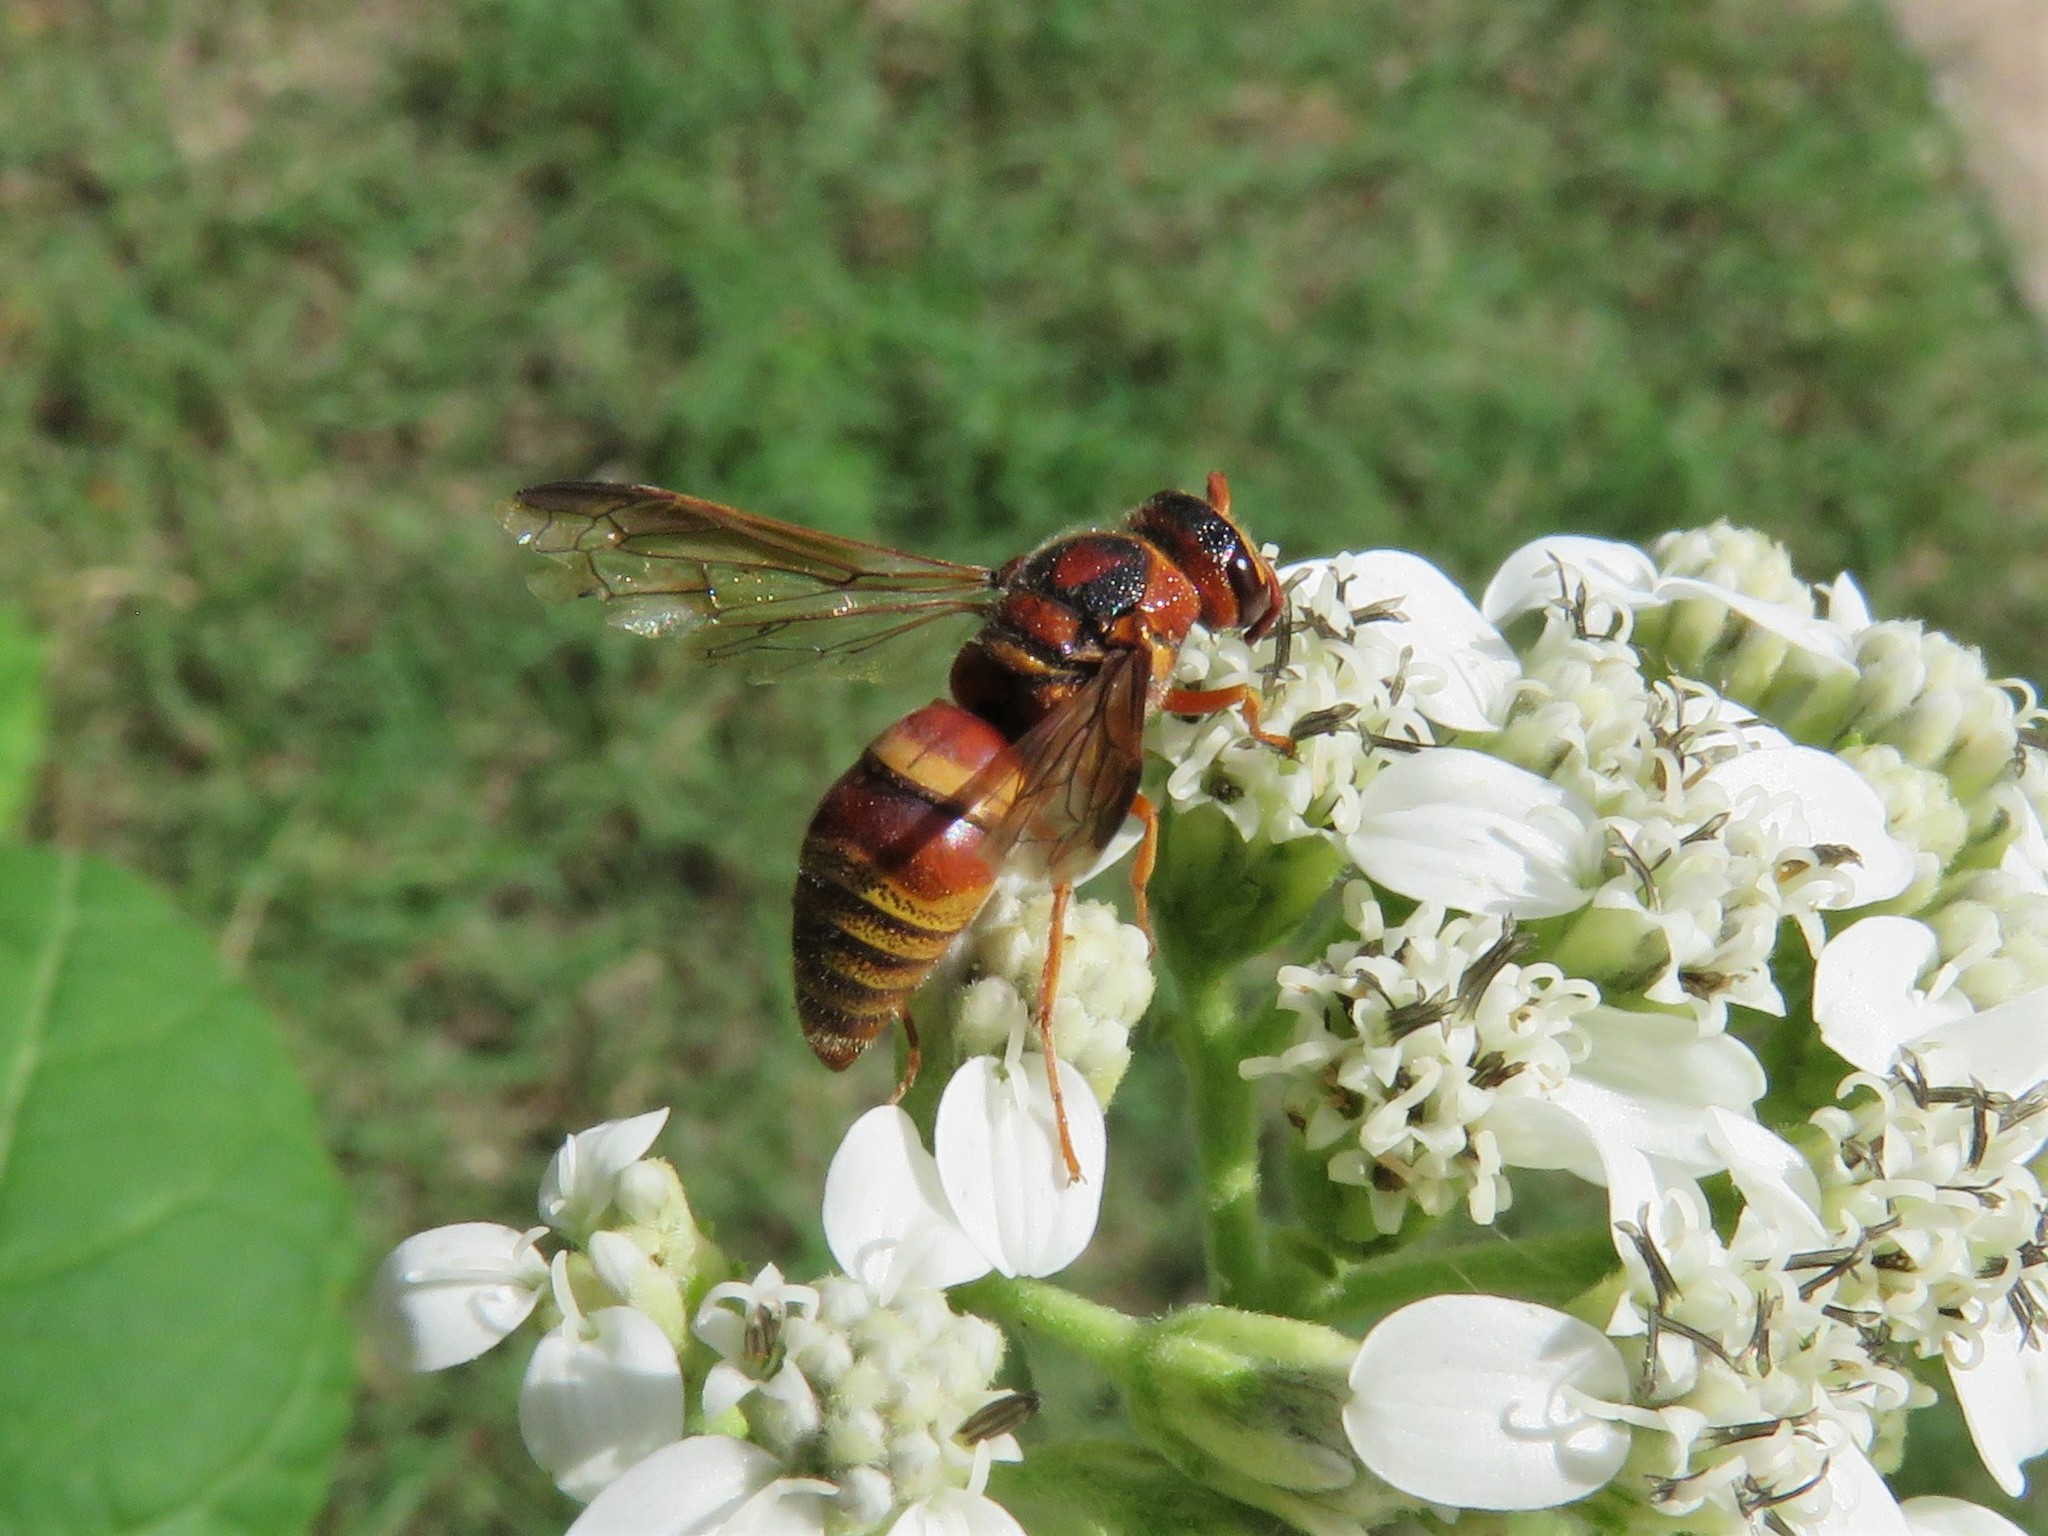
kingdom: Animalia
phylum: Arthropoda
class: Insecta
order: Hymenoptera
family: Eumenidae
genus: Euodynerus
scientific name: Euodynerus pratensis
